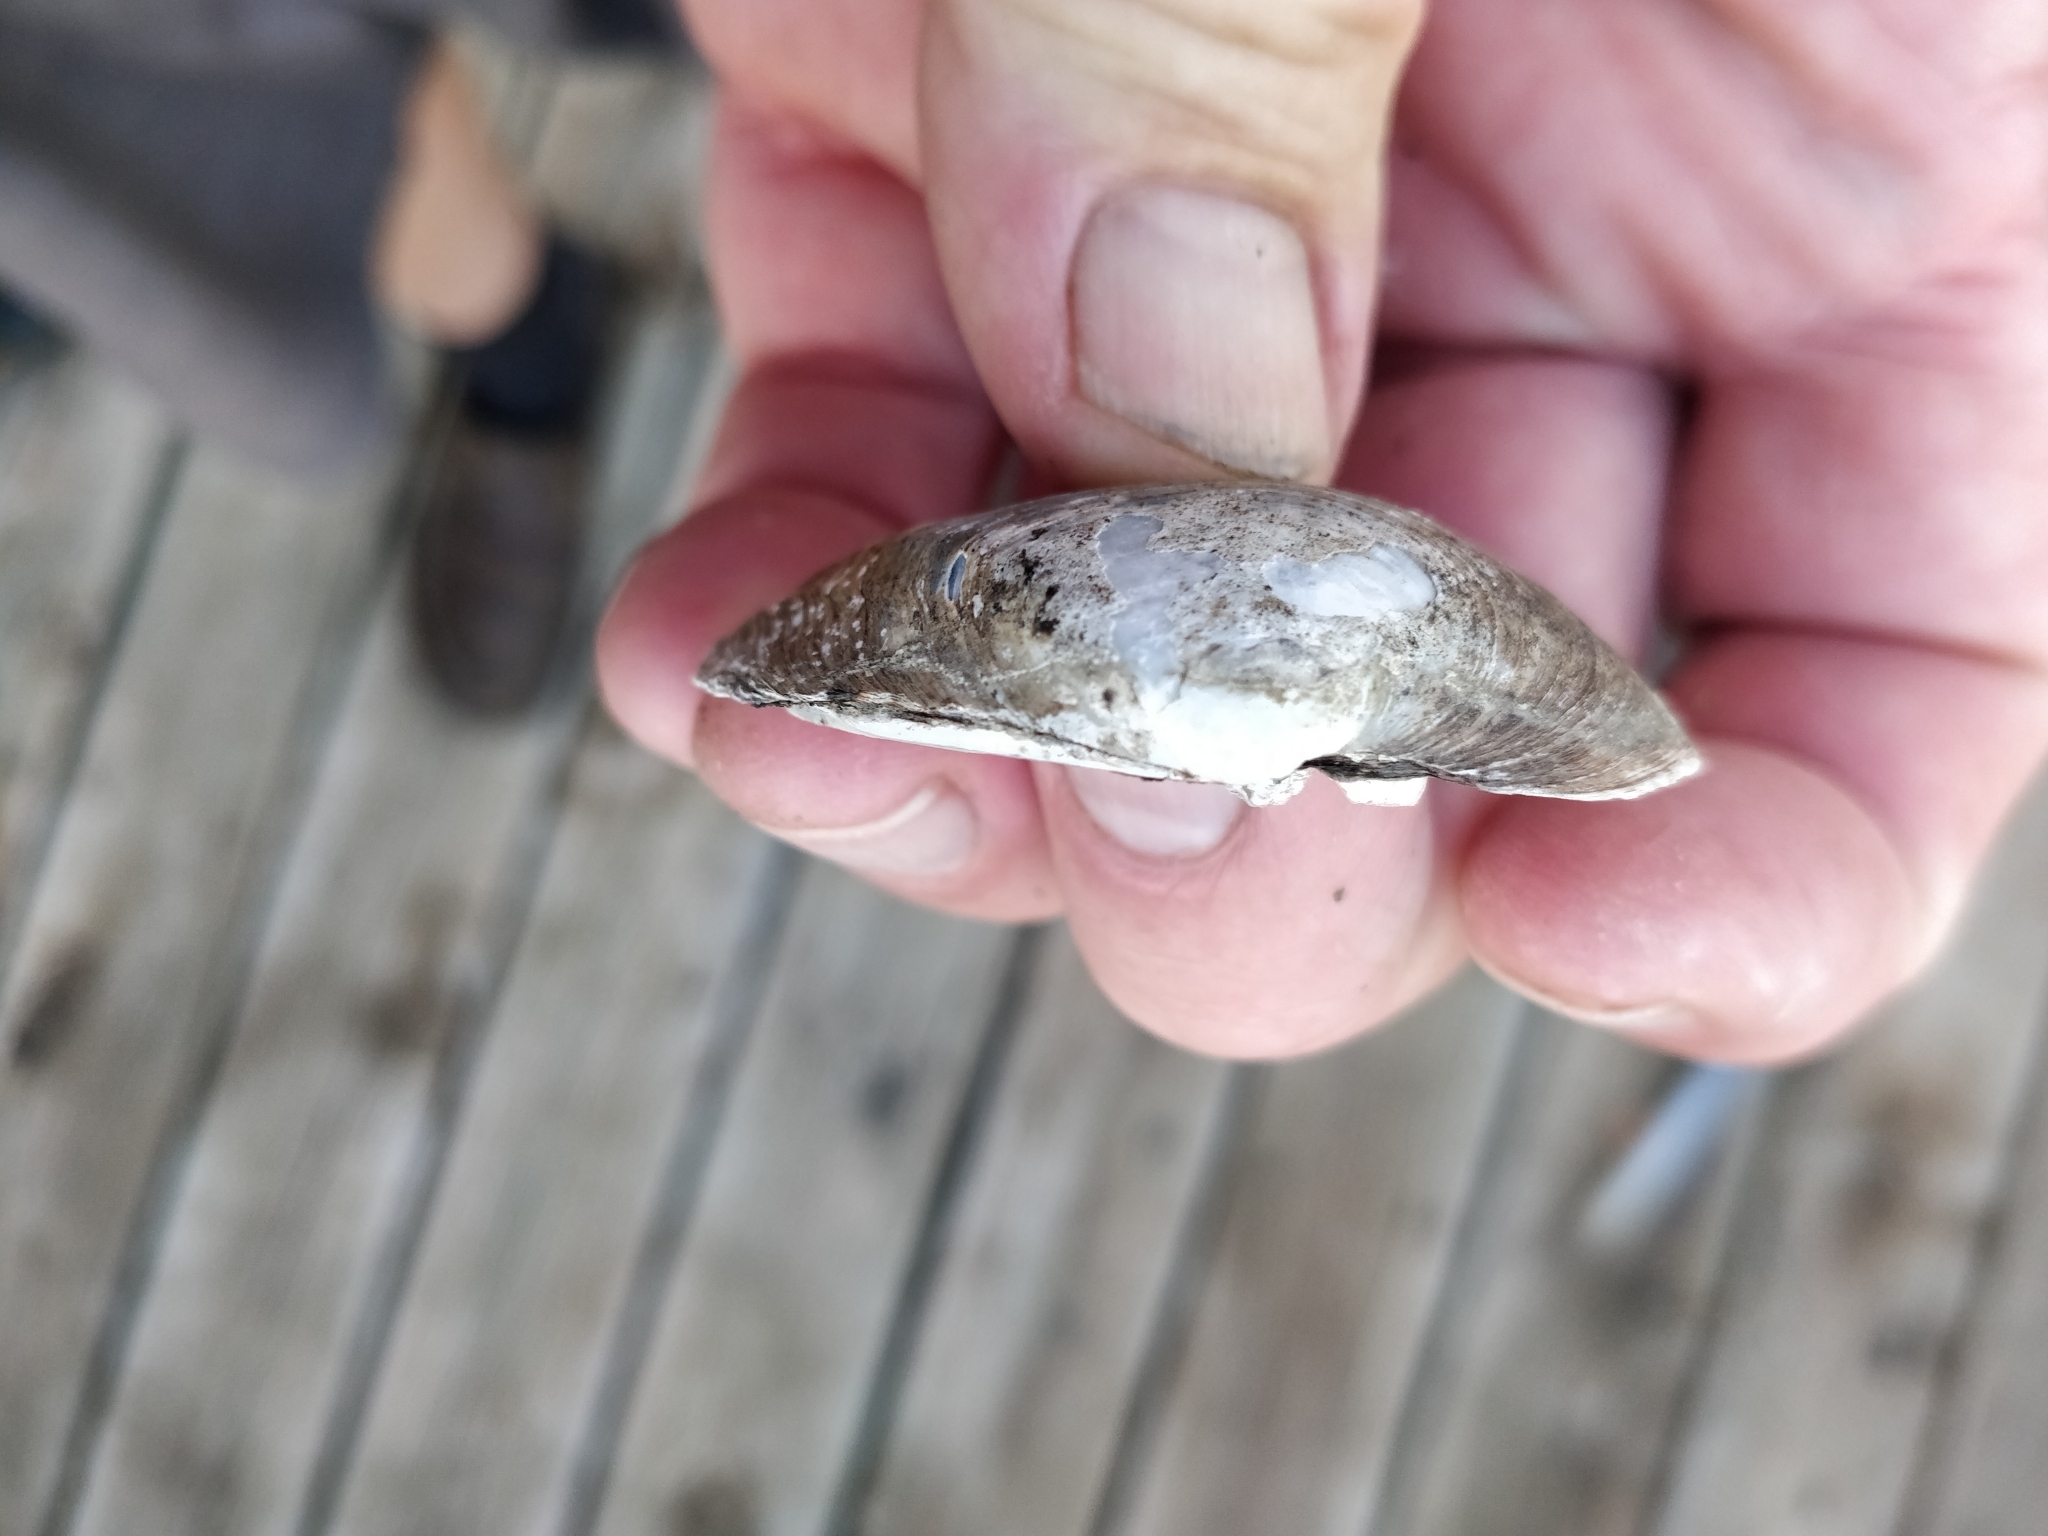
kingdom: Animalia
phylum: Mollusca
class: Bivalvia
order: Unionida
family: Unionidae
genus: Fusconaia
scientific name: Fusconaia flava
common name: Wabash pigtoe
